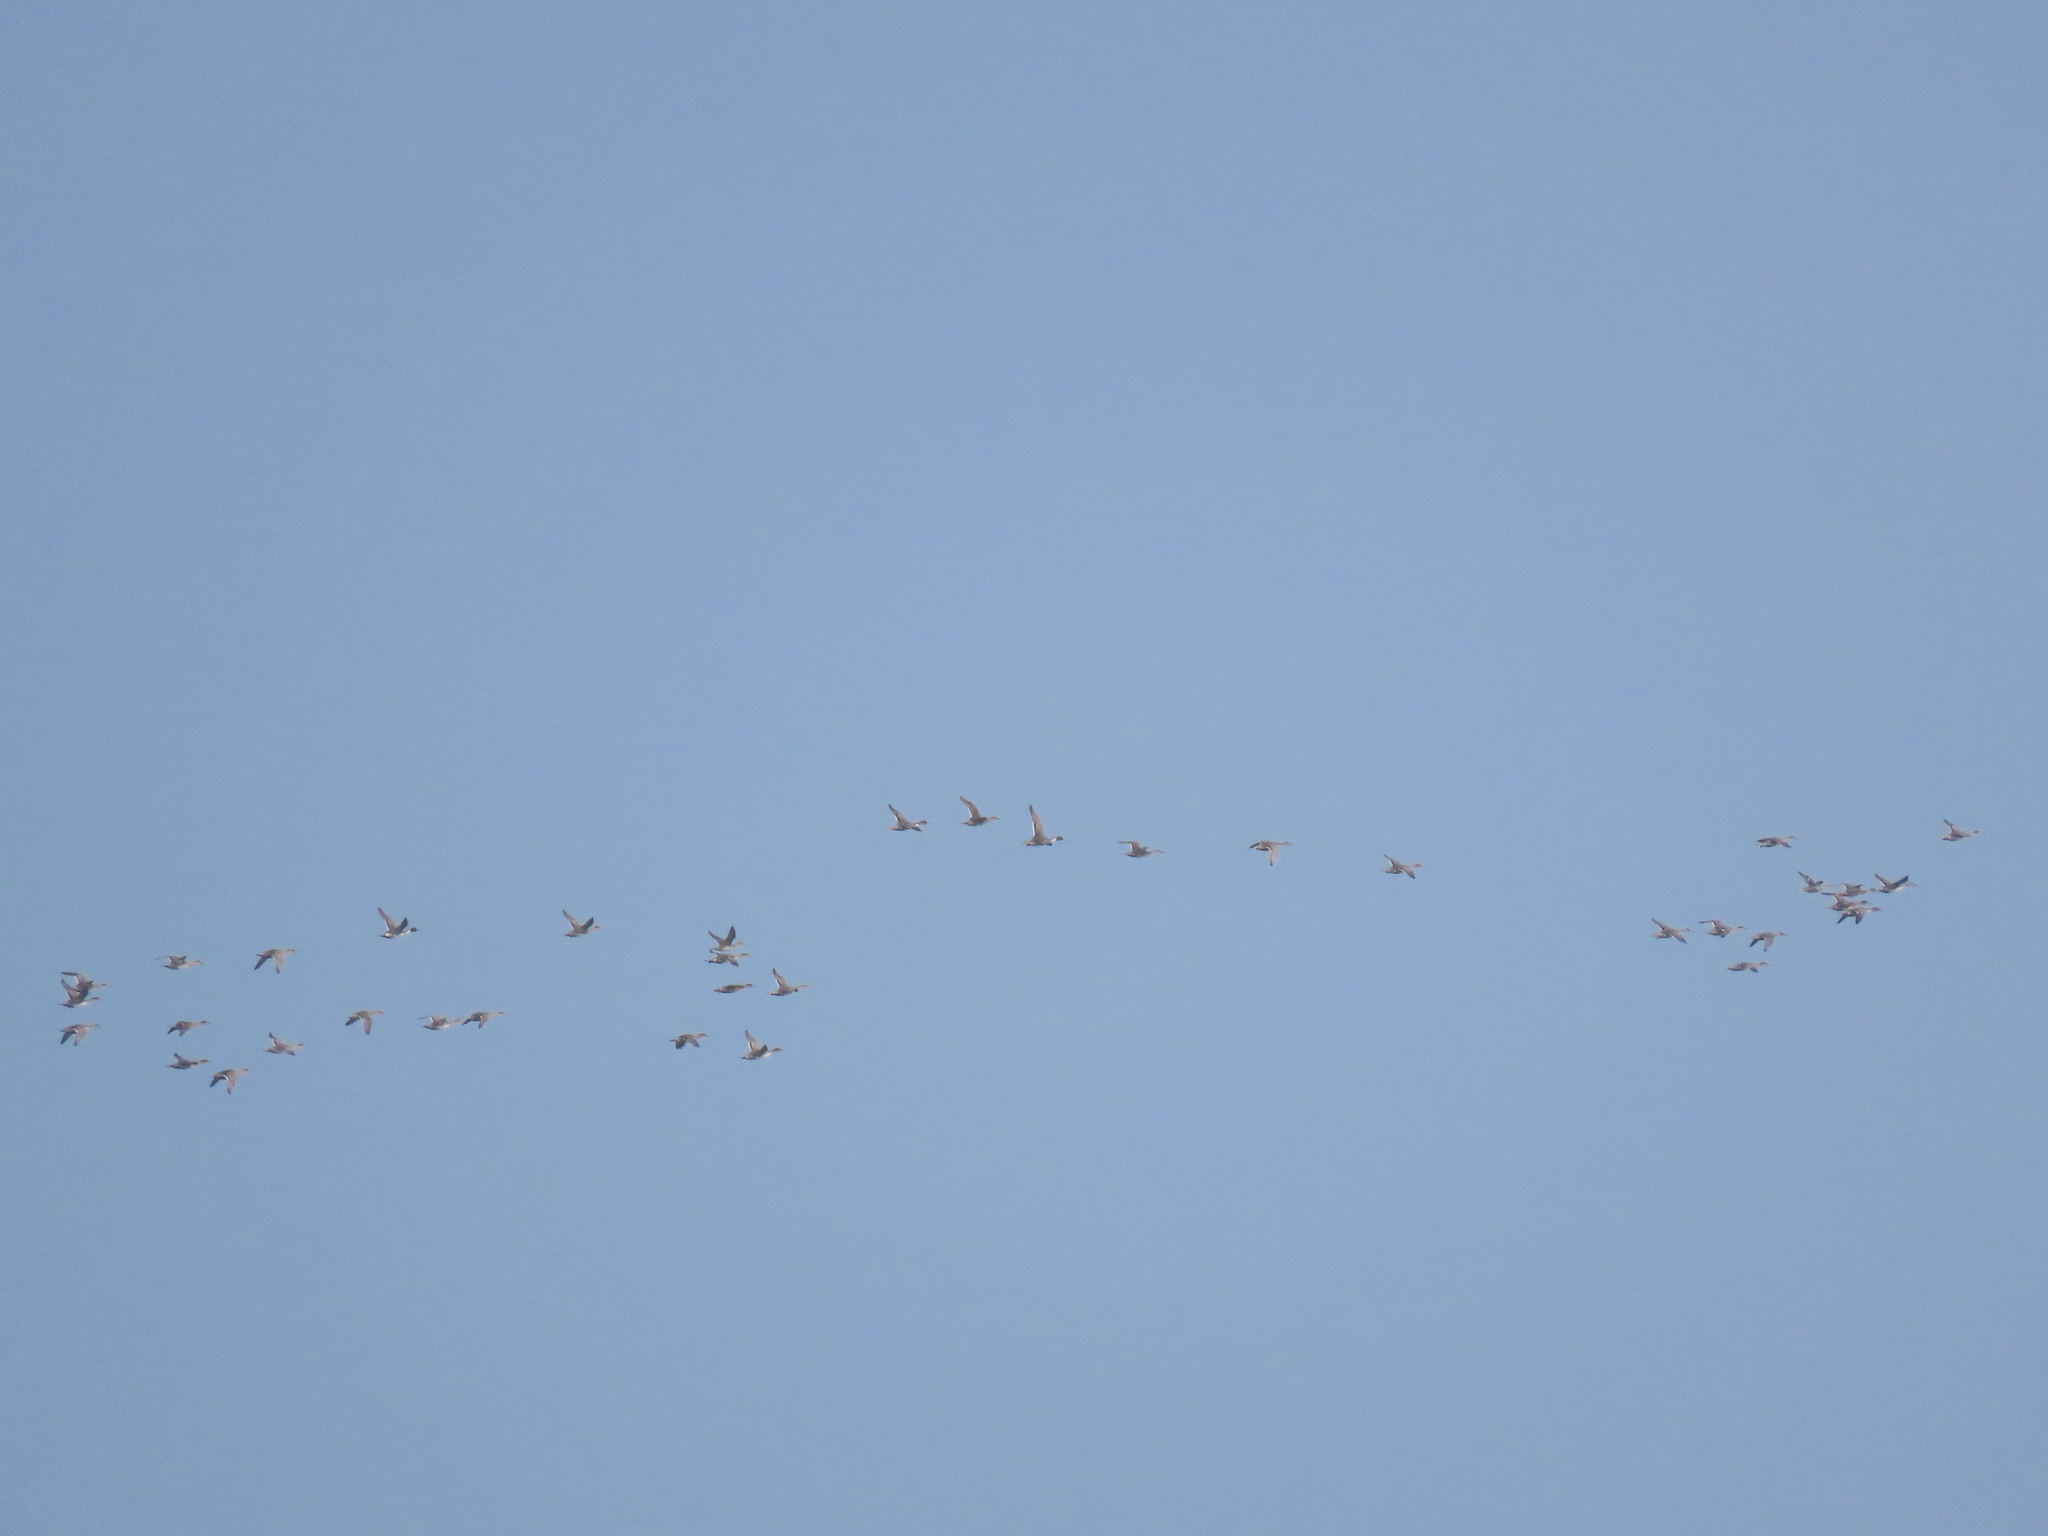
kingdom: Animalia
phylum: Chordata
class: Aves
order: Anseriformes
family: Anatidae
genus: Anas
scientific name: Anas acuta
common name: Northern pintail
